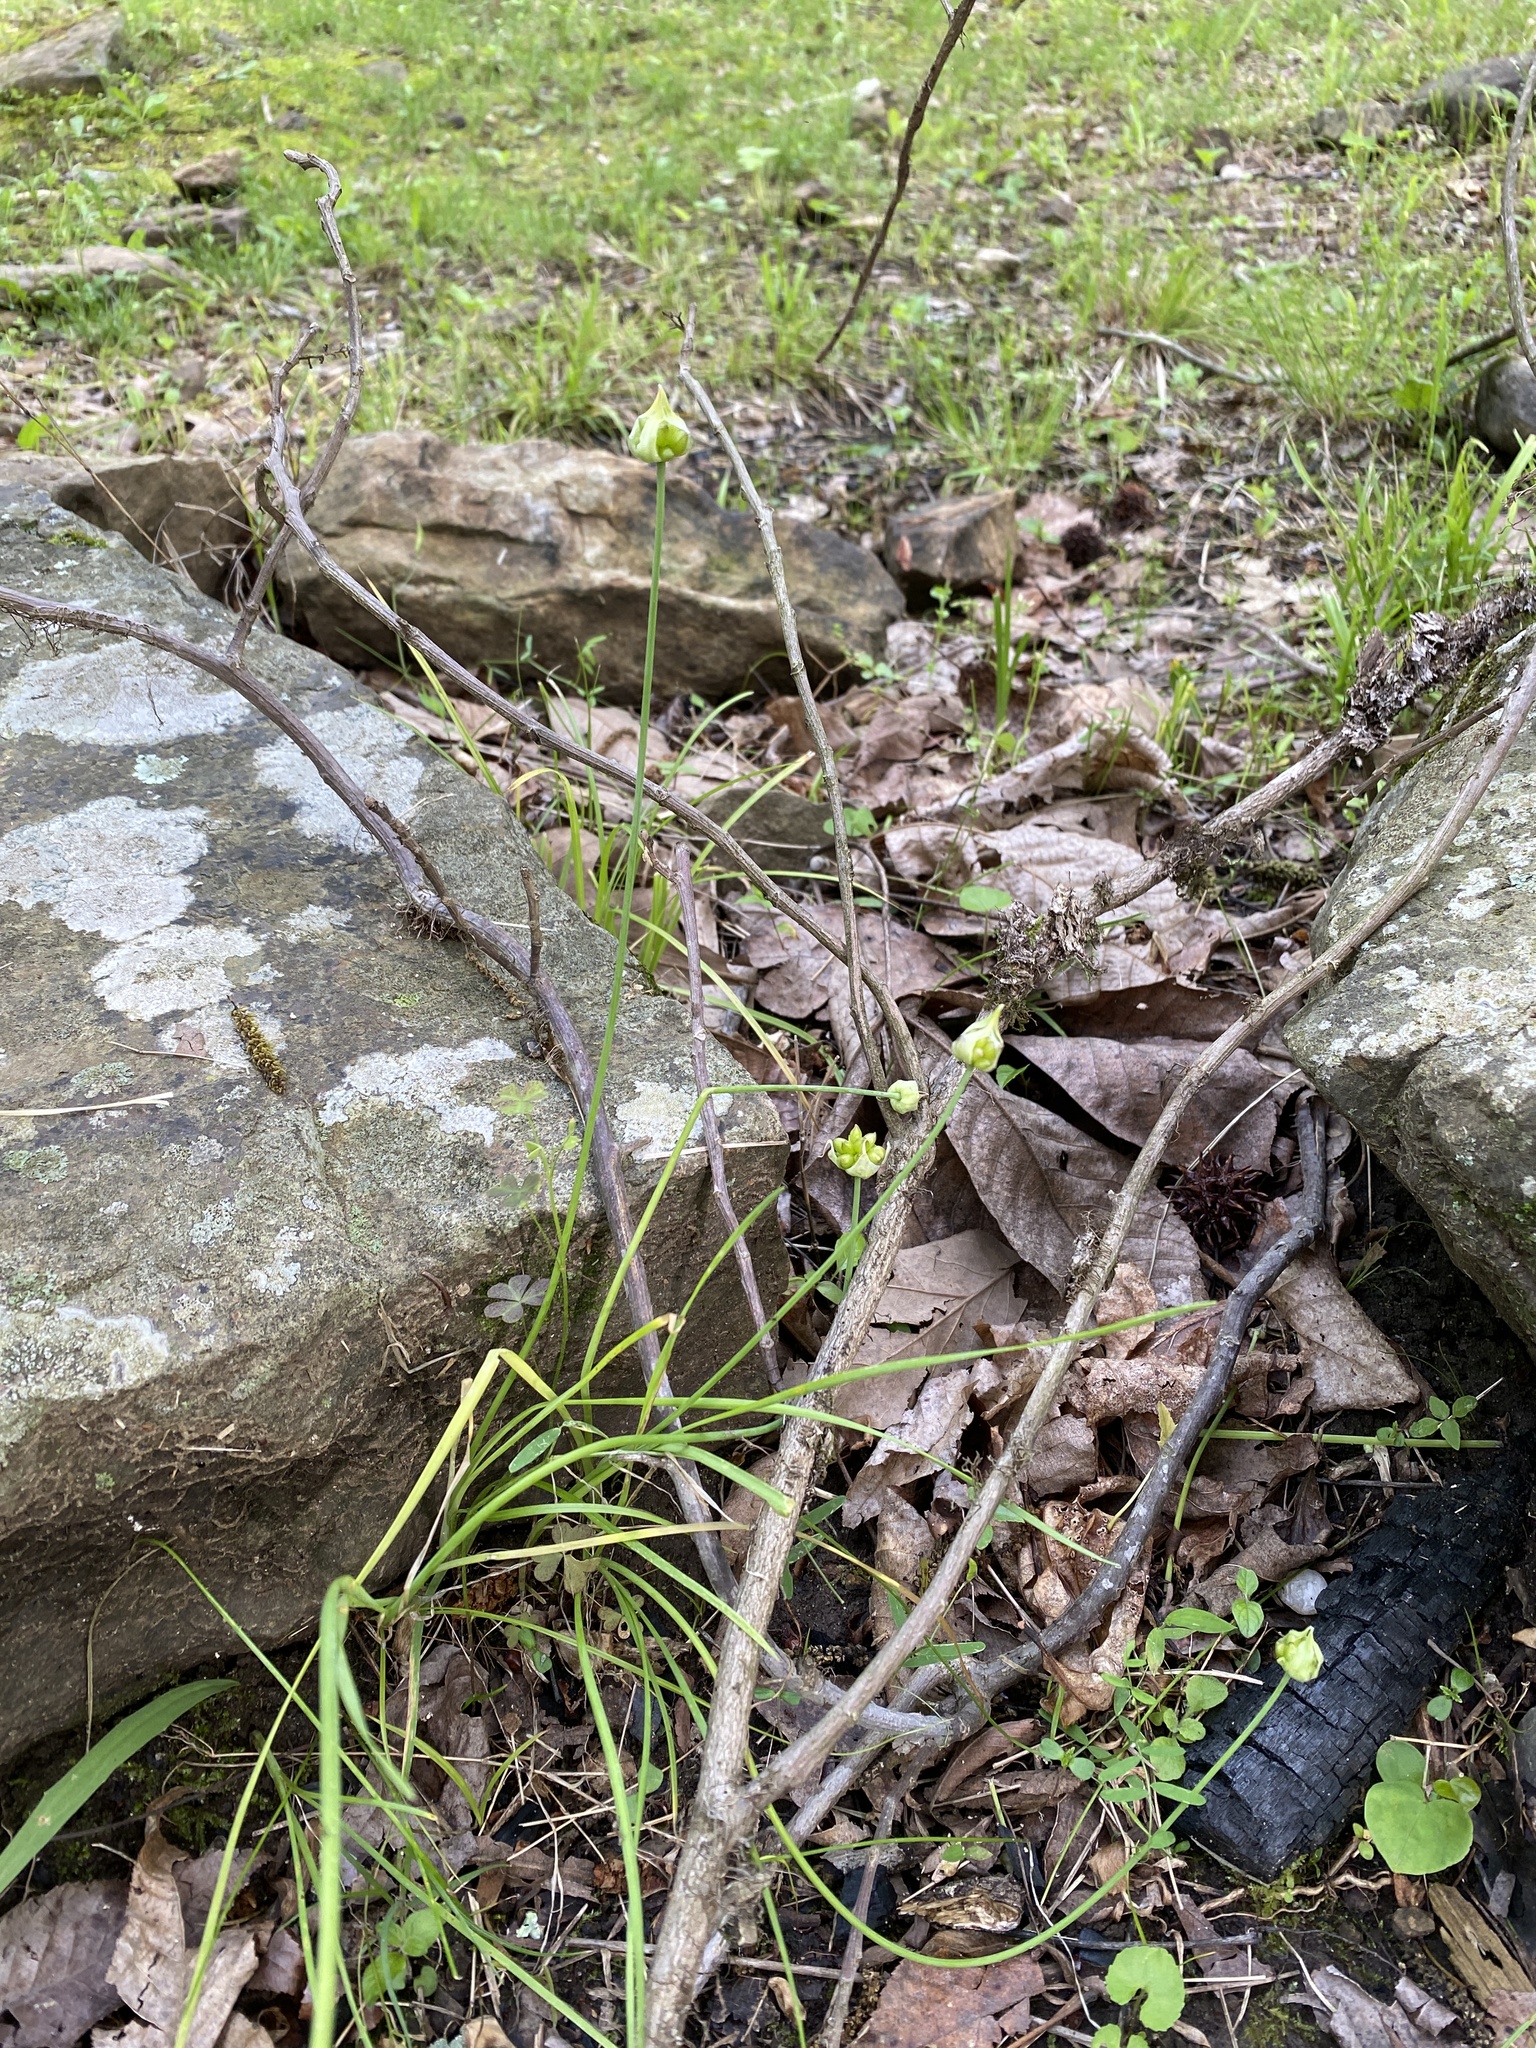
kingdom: Plantae
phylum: Tracheophyta
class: Liliopsida
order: Asparagales
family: Amaryllidaceae
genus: Allium
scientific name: Allium canadense
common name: Meadow garlic
